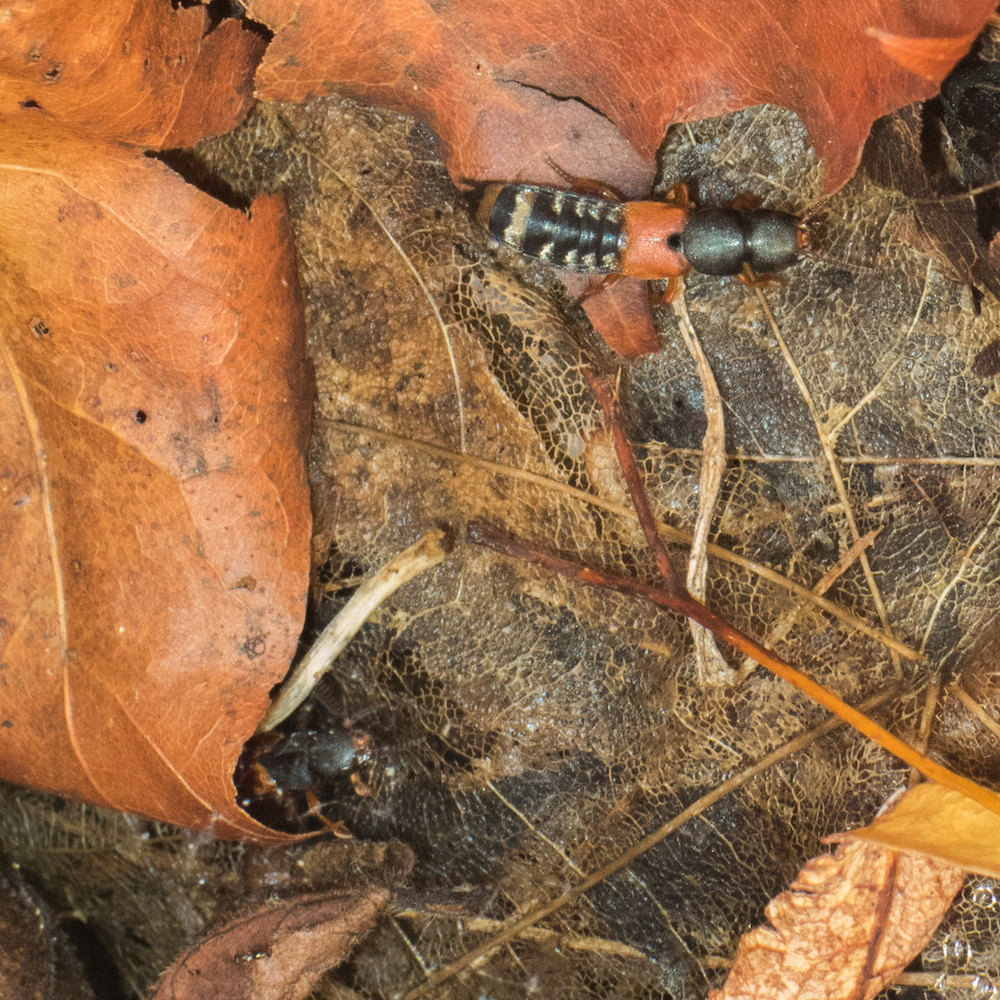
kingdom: Animalia
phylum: Arthropoda
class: Insecta
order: Coleoptera
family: Staphylinidae
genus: Platydracus
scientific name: Platydracus stercorarius
